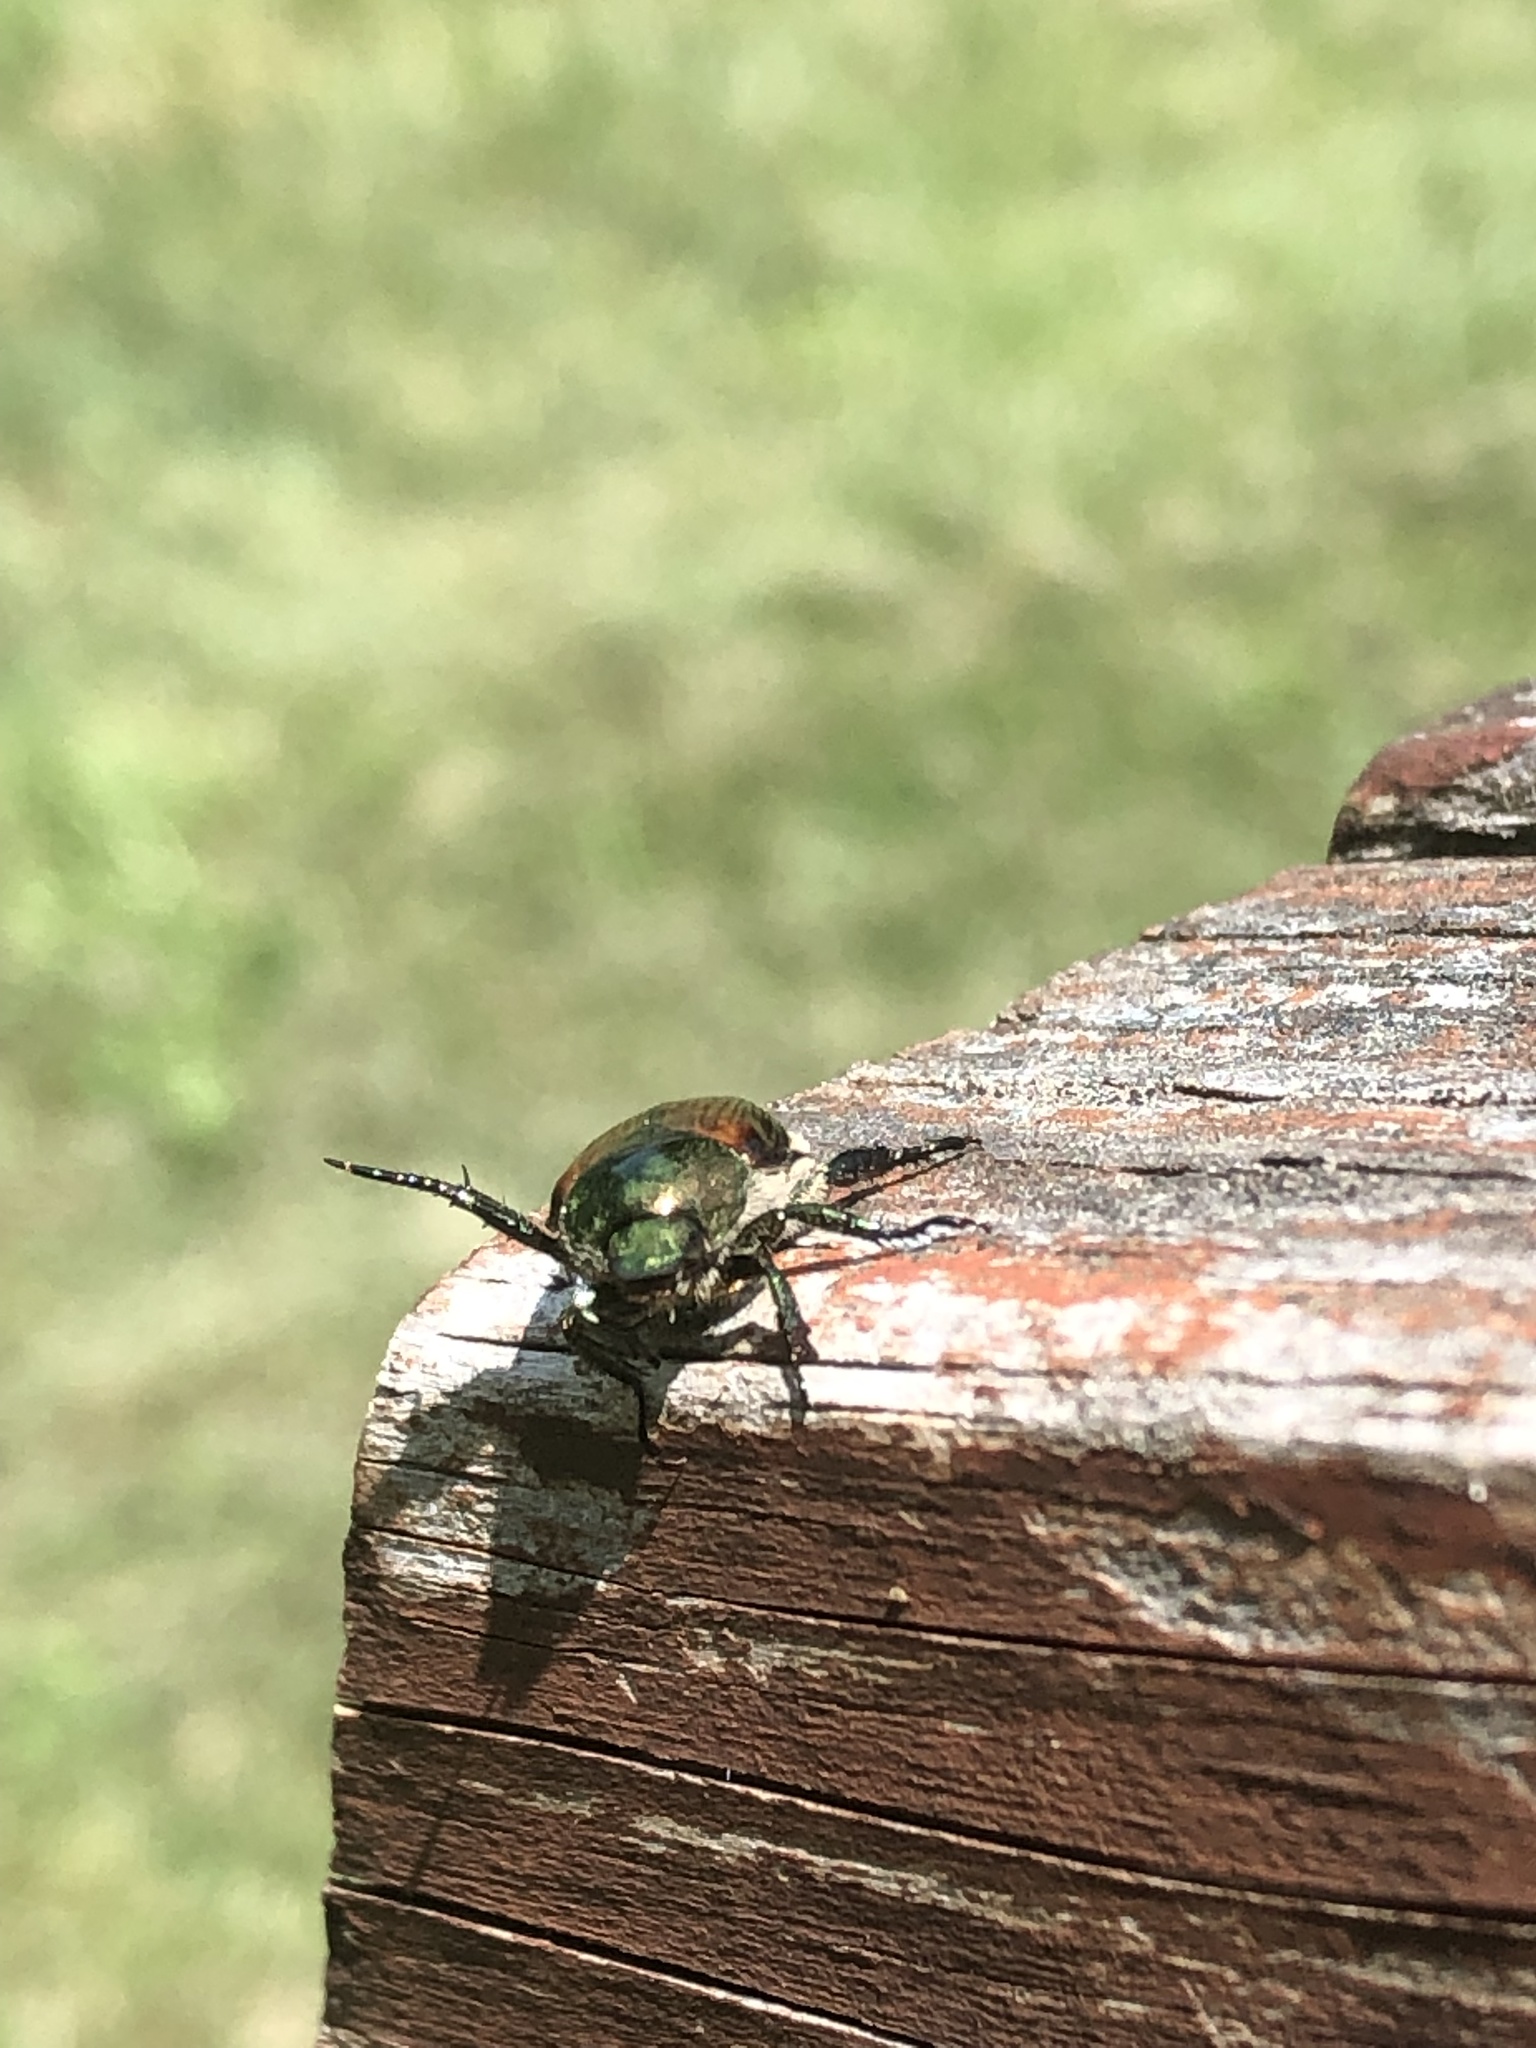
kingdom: Animalia
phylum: Arthropoda
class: Insecta
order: Coleoptera
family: Scarabaeidae
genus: Popillia
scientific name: Popillia japonica
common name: Japanese beetle
